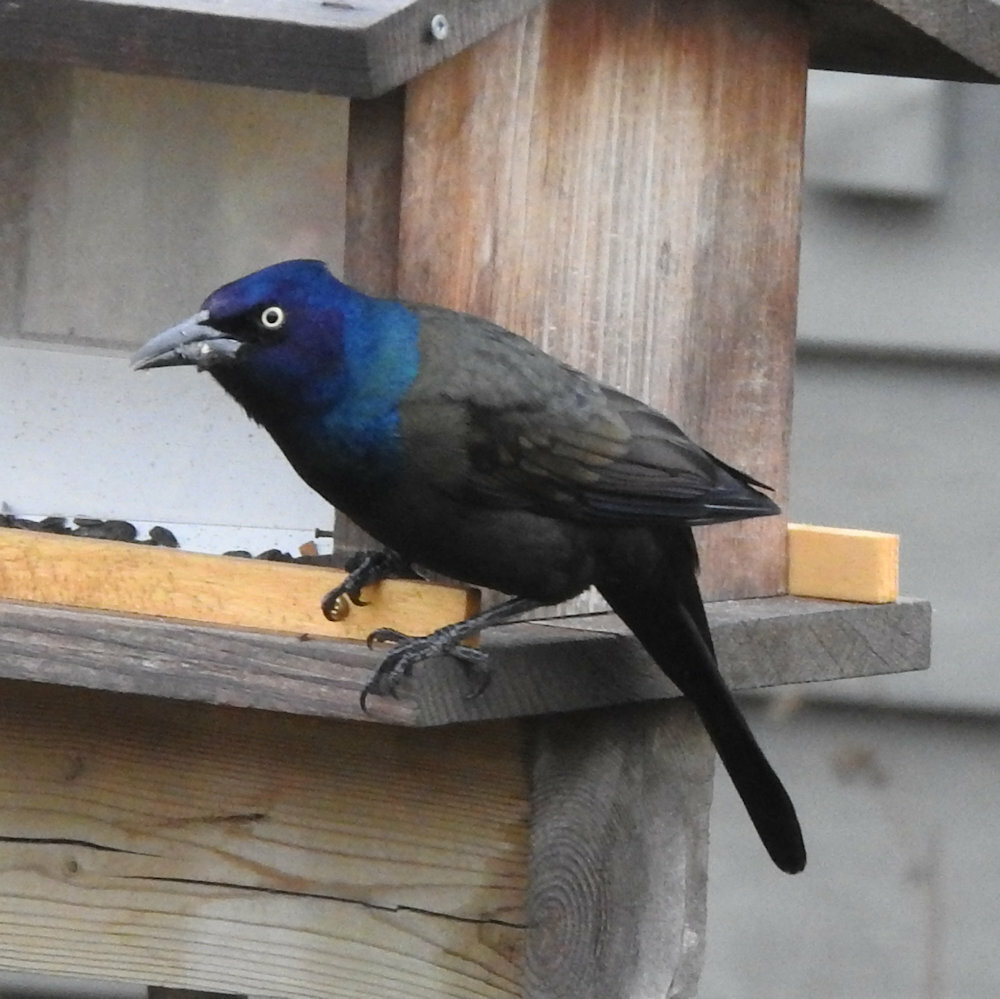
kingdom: Animalia
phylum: Chordata
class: Aves
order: Passeriformes
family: Icteridae
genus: Quiscalus
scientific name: Quiscalus quiscula
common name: Common grackle
